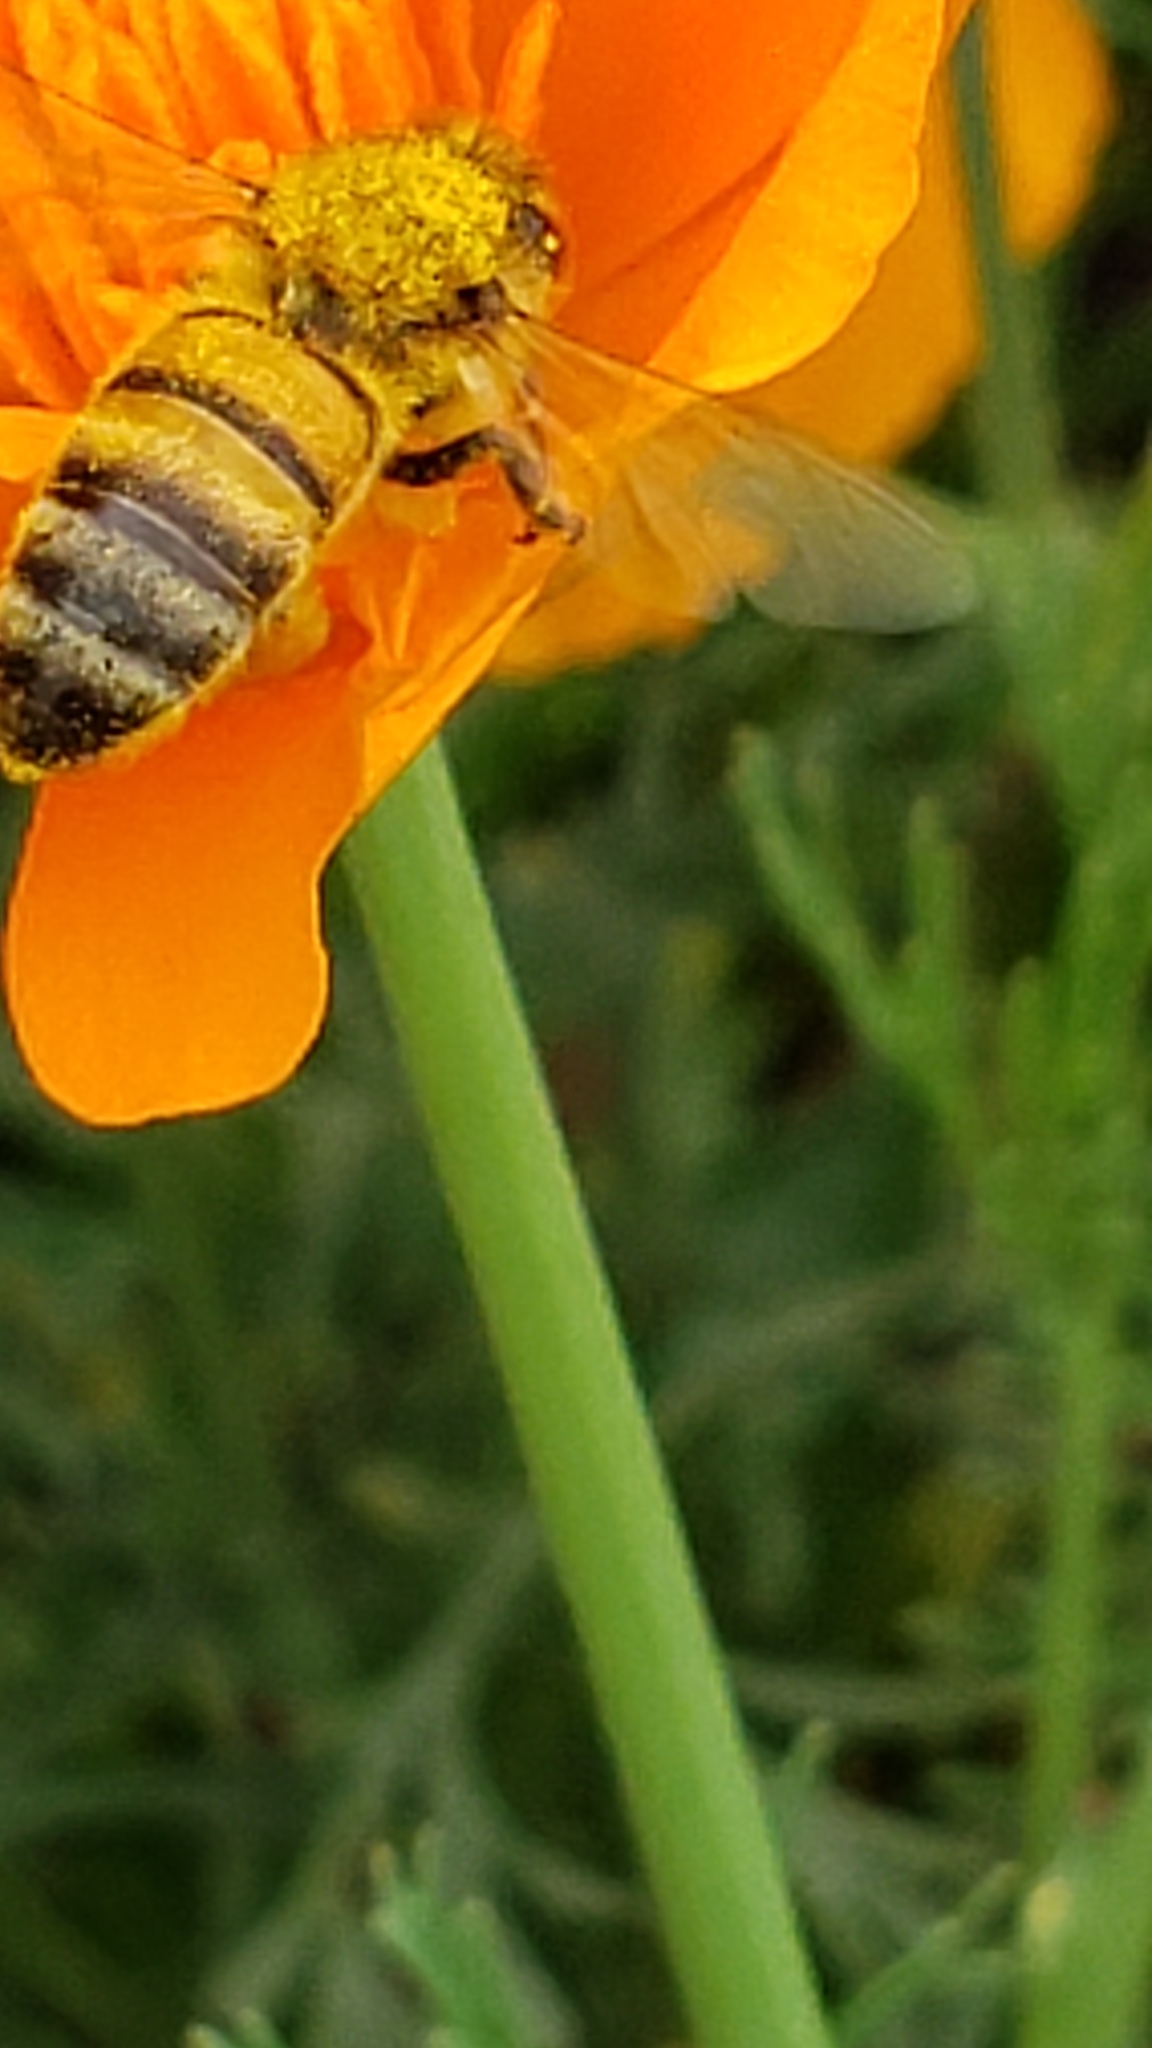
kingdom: Animalia
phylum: Arthropoda
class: Insecta
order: Hymenoptera
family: Apidae
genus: Apis
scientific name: Apis mellifera
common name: Honey bee
